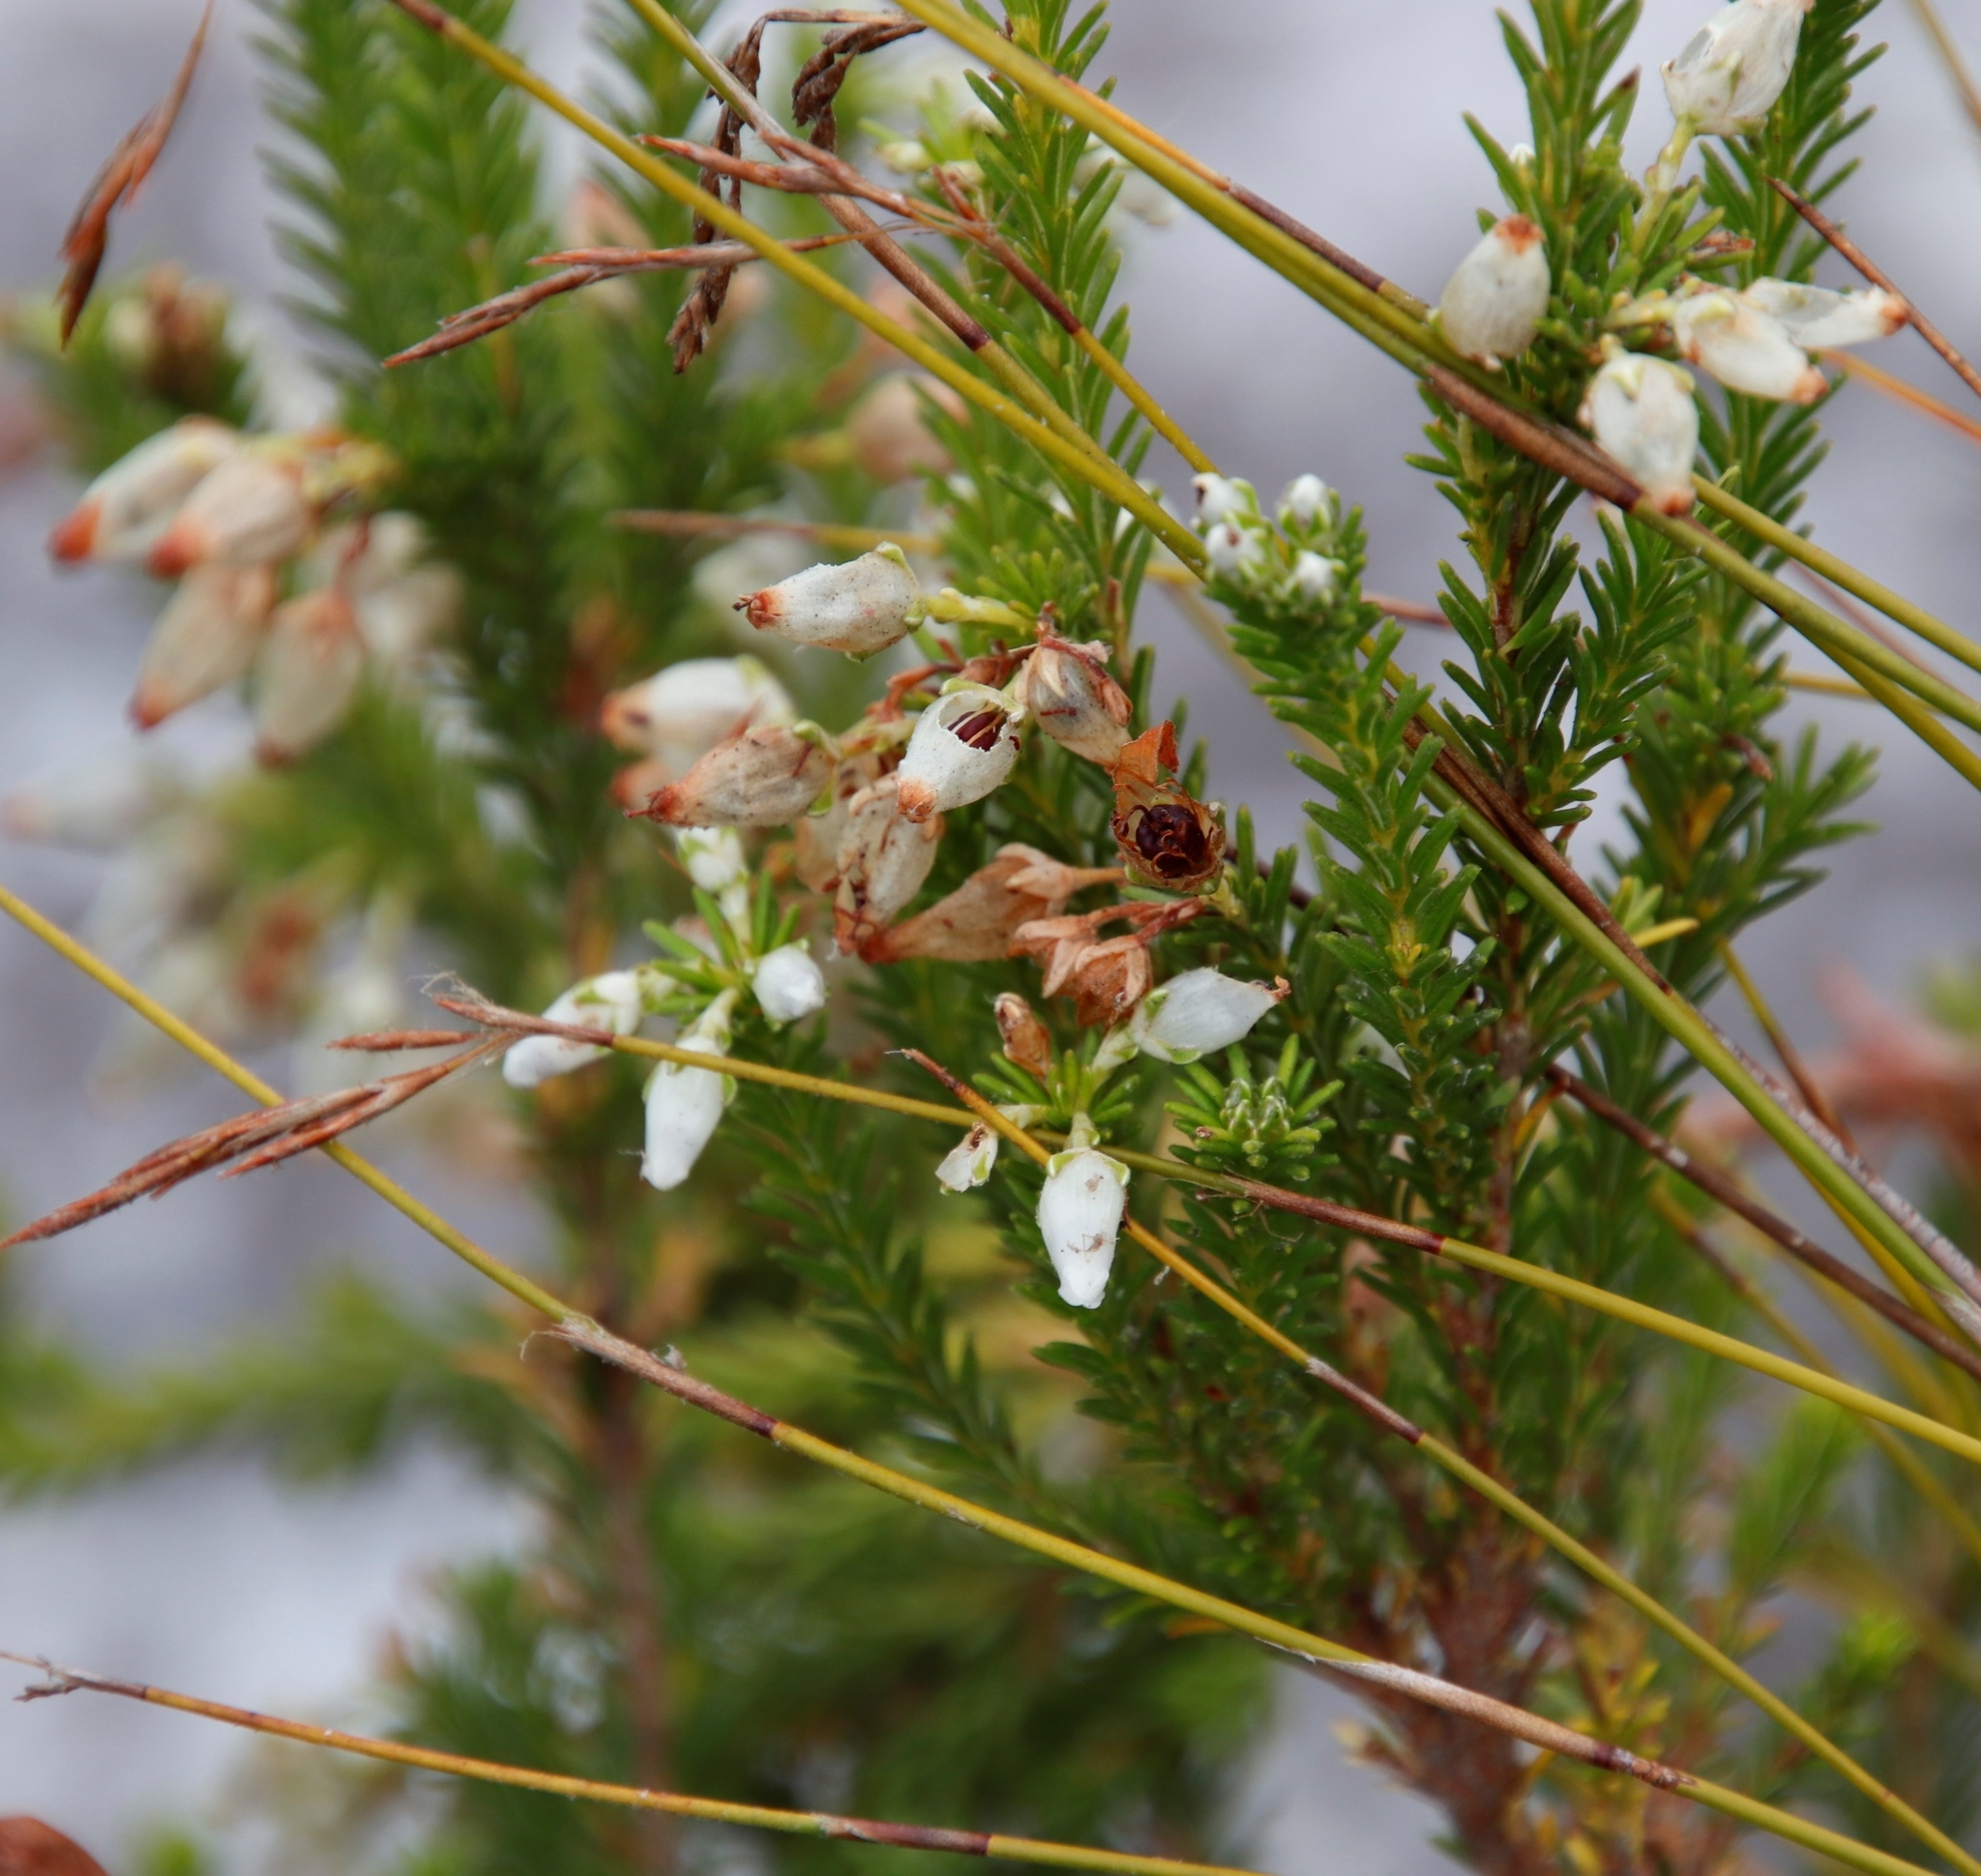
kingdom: Plantae
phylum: Tracheophyta
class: Magnoliopsida
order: Ericales
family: Ericaceae
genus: Erica
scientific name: Erica physodes
